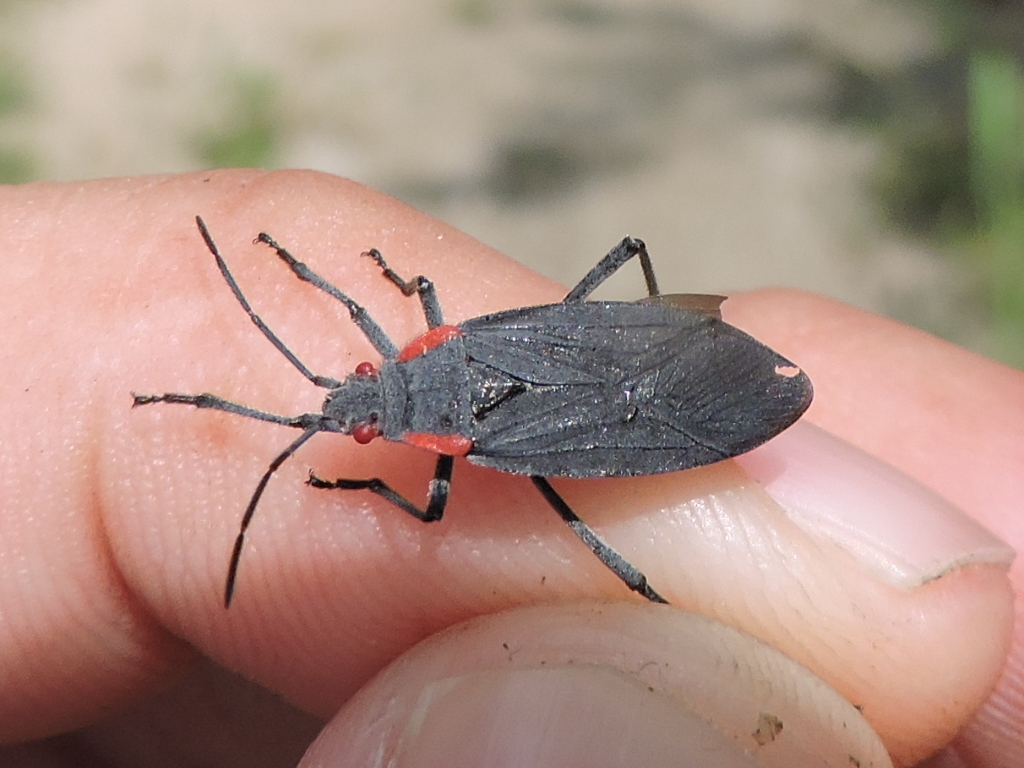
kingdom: Animalia
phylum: Arthropoda
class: Insecta
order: Hemiptera
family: Rhopalidae
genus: Jadera
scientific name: Jadera haematoloma
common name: Red-shouldered bug
